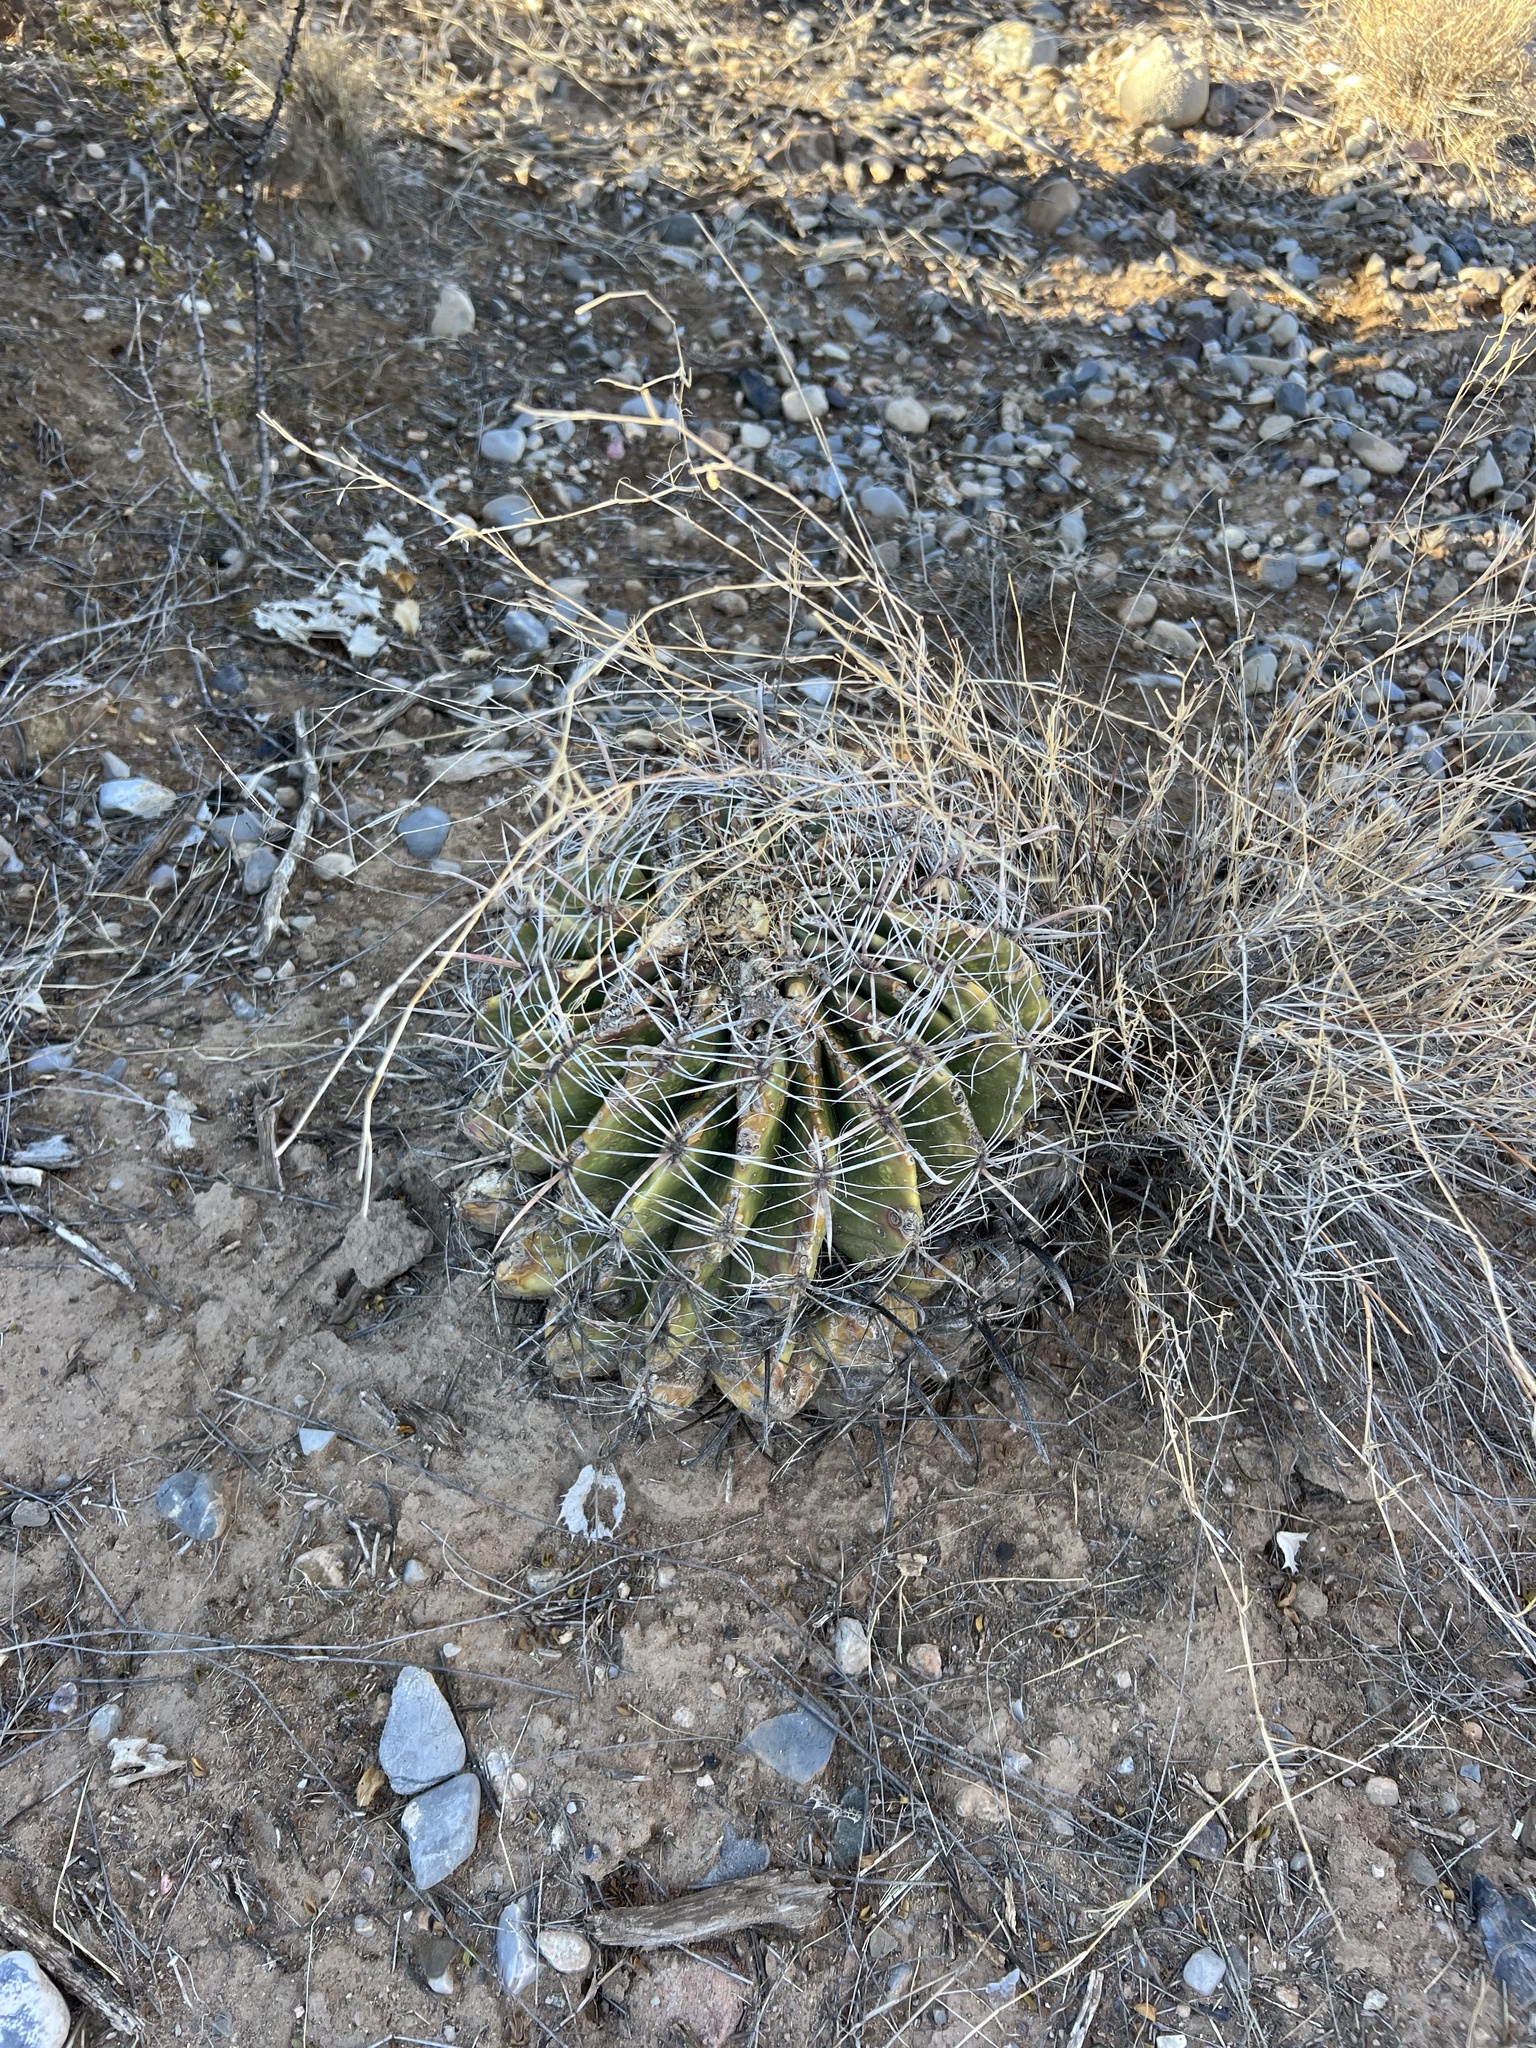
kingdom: Plantae
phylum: Tracheophyta
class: Magnoliopsida
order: Caryophyllales
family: Cactaceae
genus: Ferocactus
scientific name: Ferocactus wislizeni
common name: Candy barrel cactus
